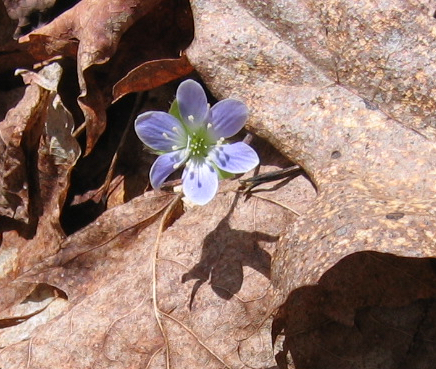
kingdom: Plantae
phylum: Tracheophyta
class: Magnoliopsida
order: Ranunculales
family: Ranunculaceae
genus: Hepatica
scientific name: Hepatica americana
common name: American hepatica
